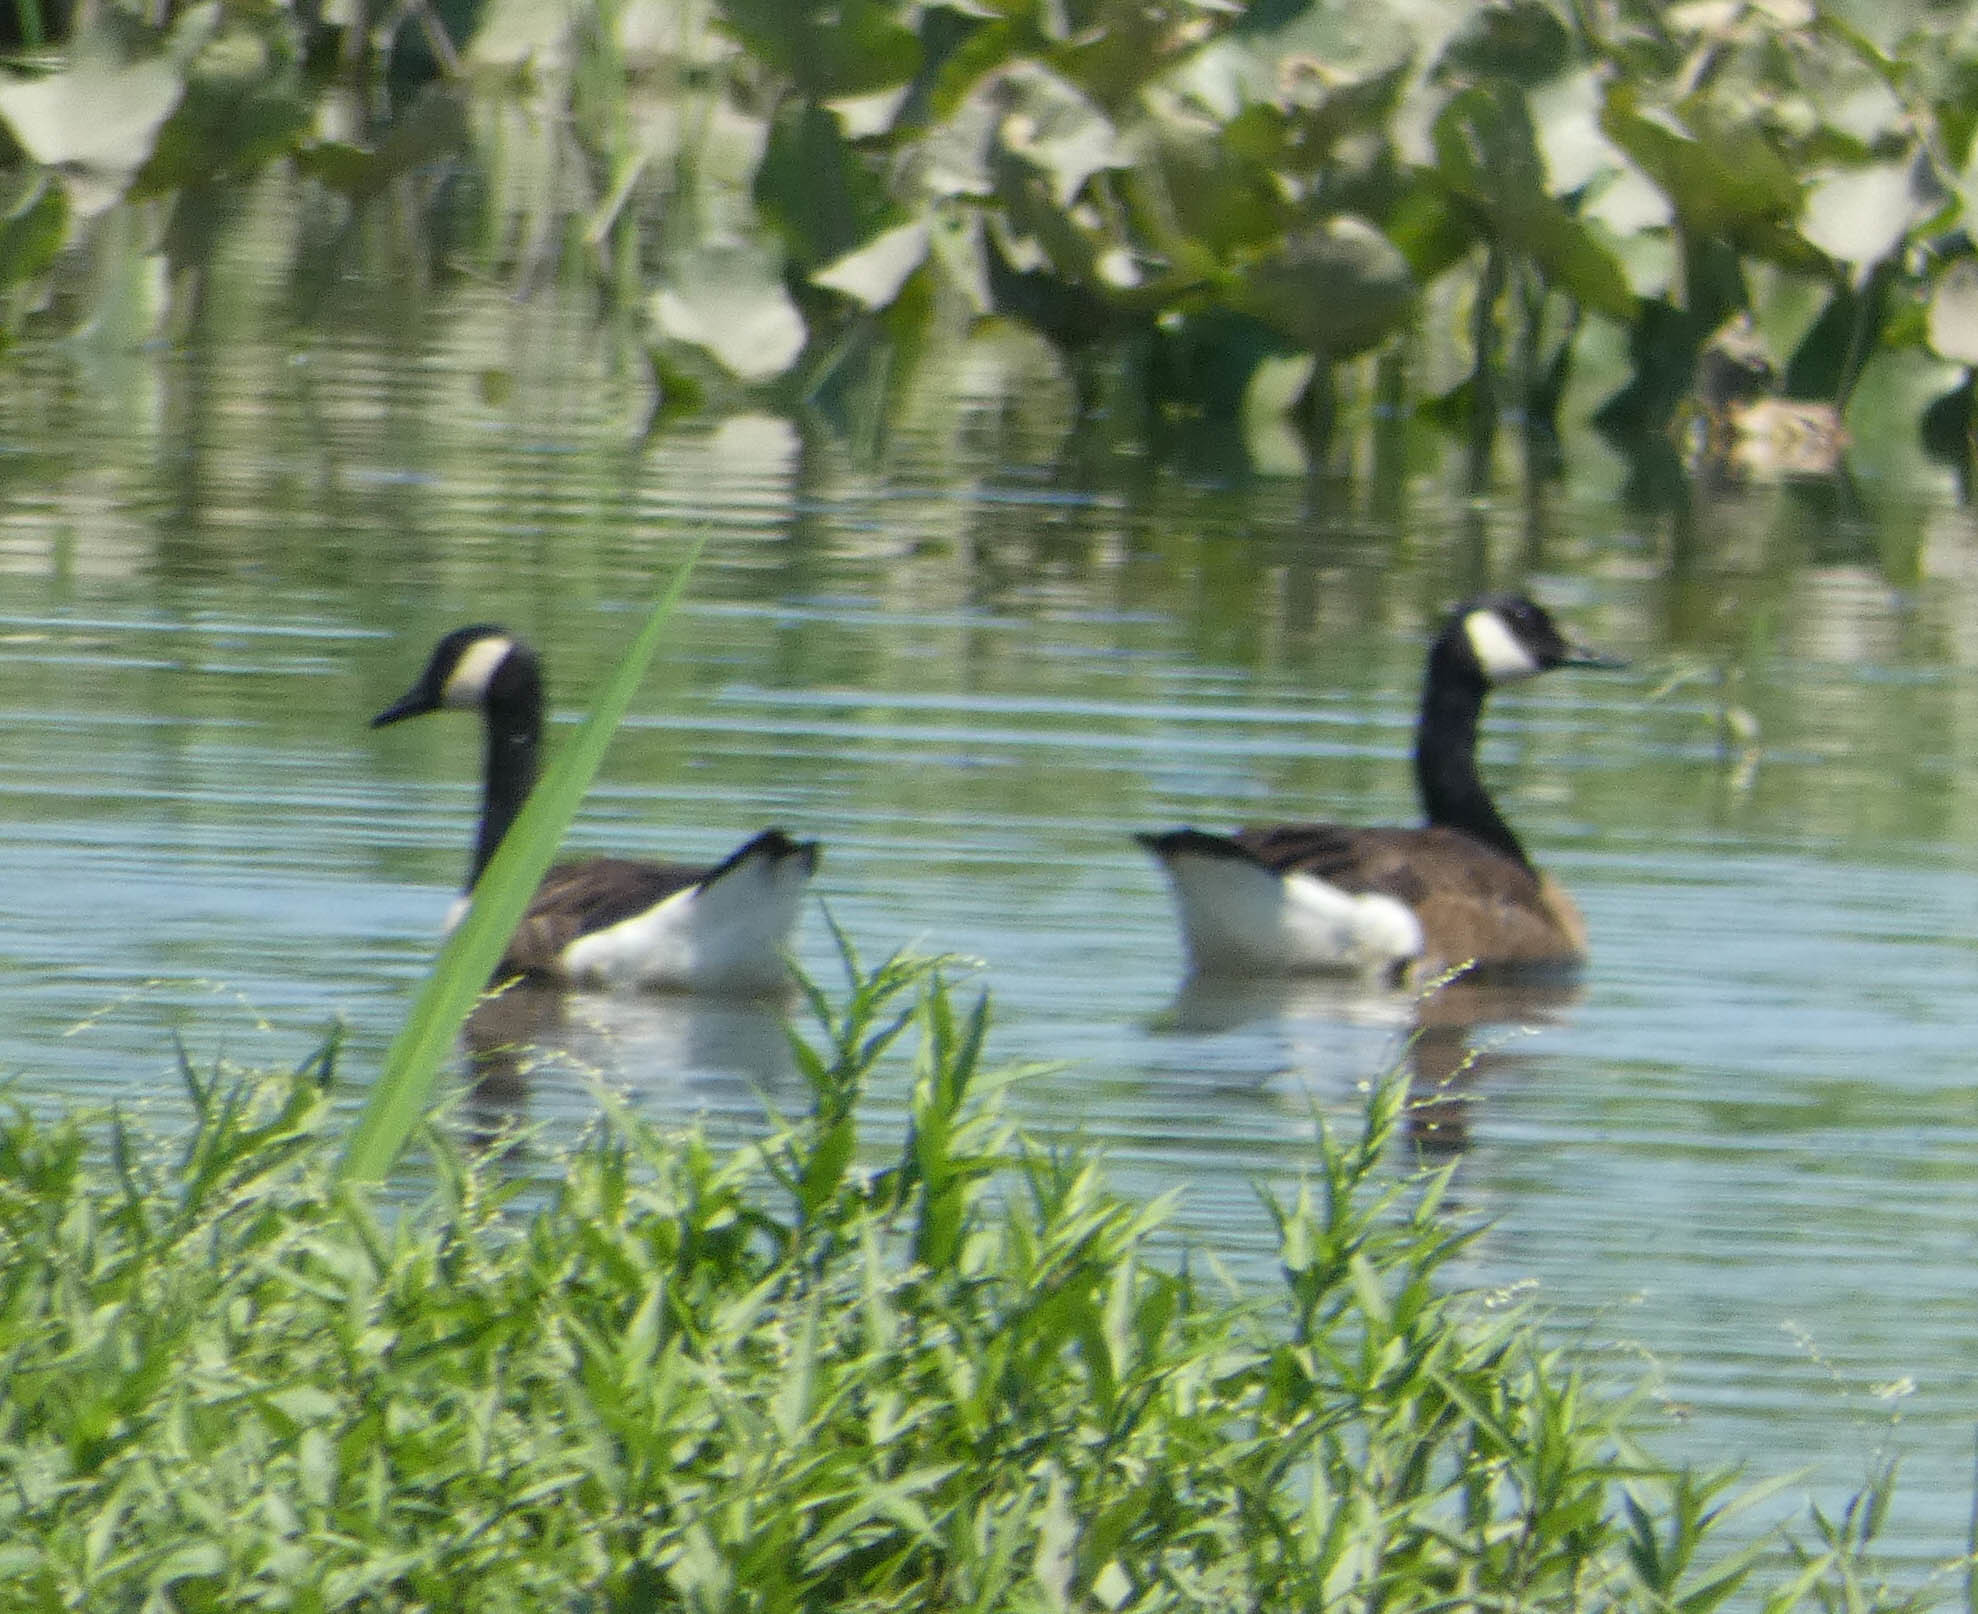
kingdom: Animalia
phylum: Chordata
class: Aves
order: Anseriformes
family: Anatidae
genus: Branta
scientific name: Branta canadensis
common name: Canada goose
